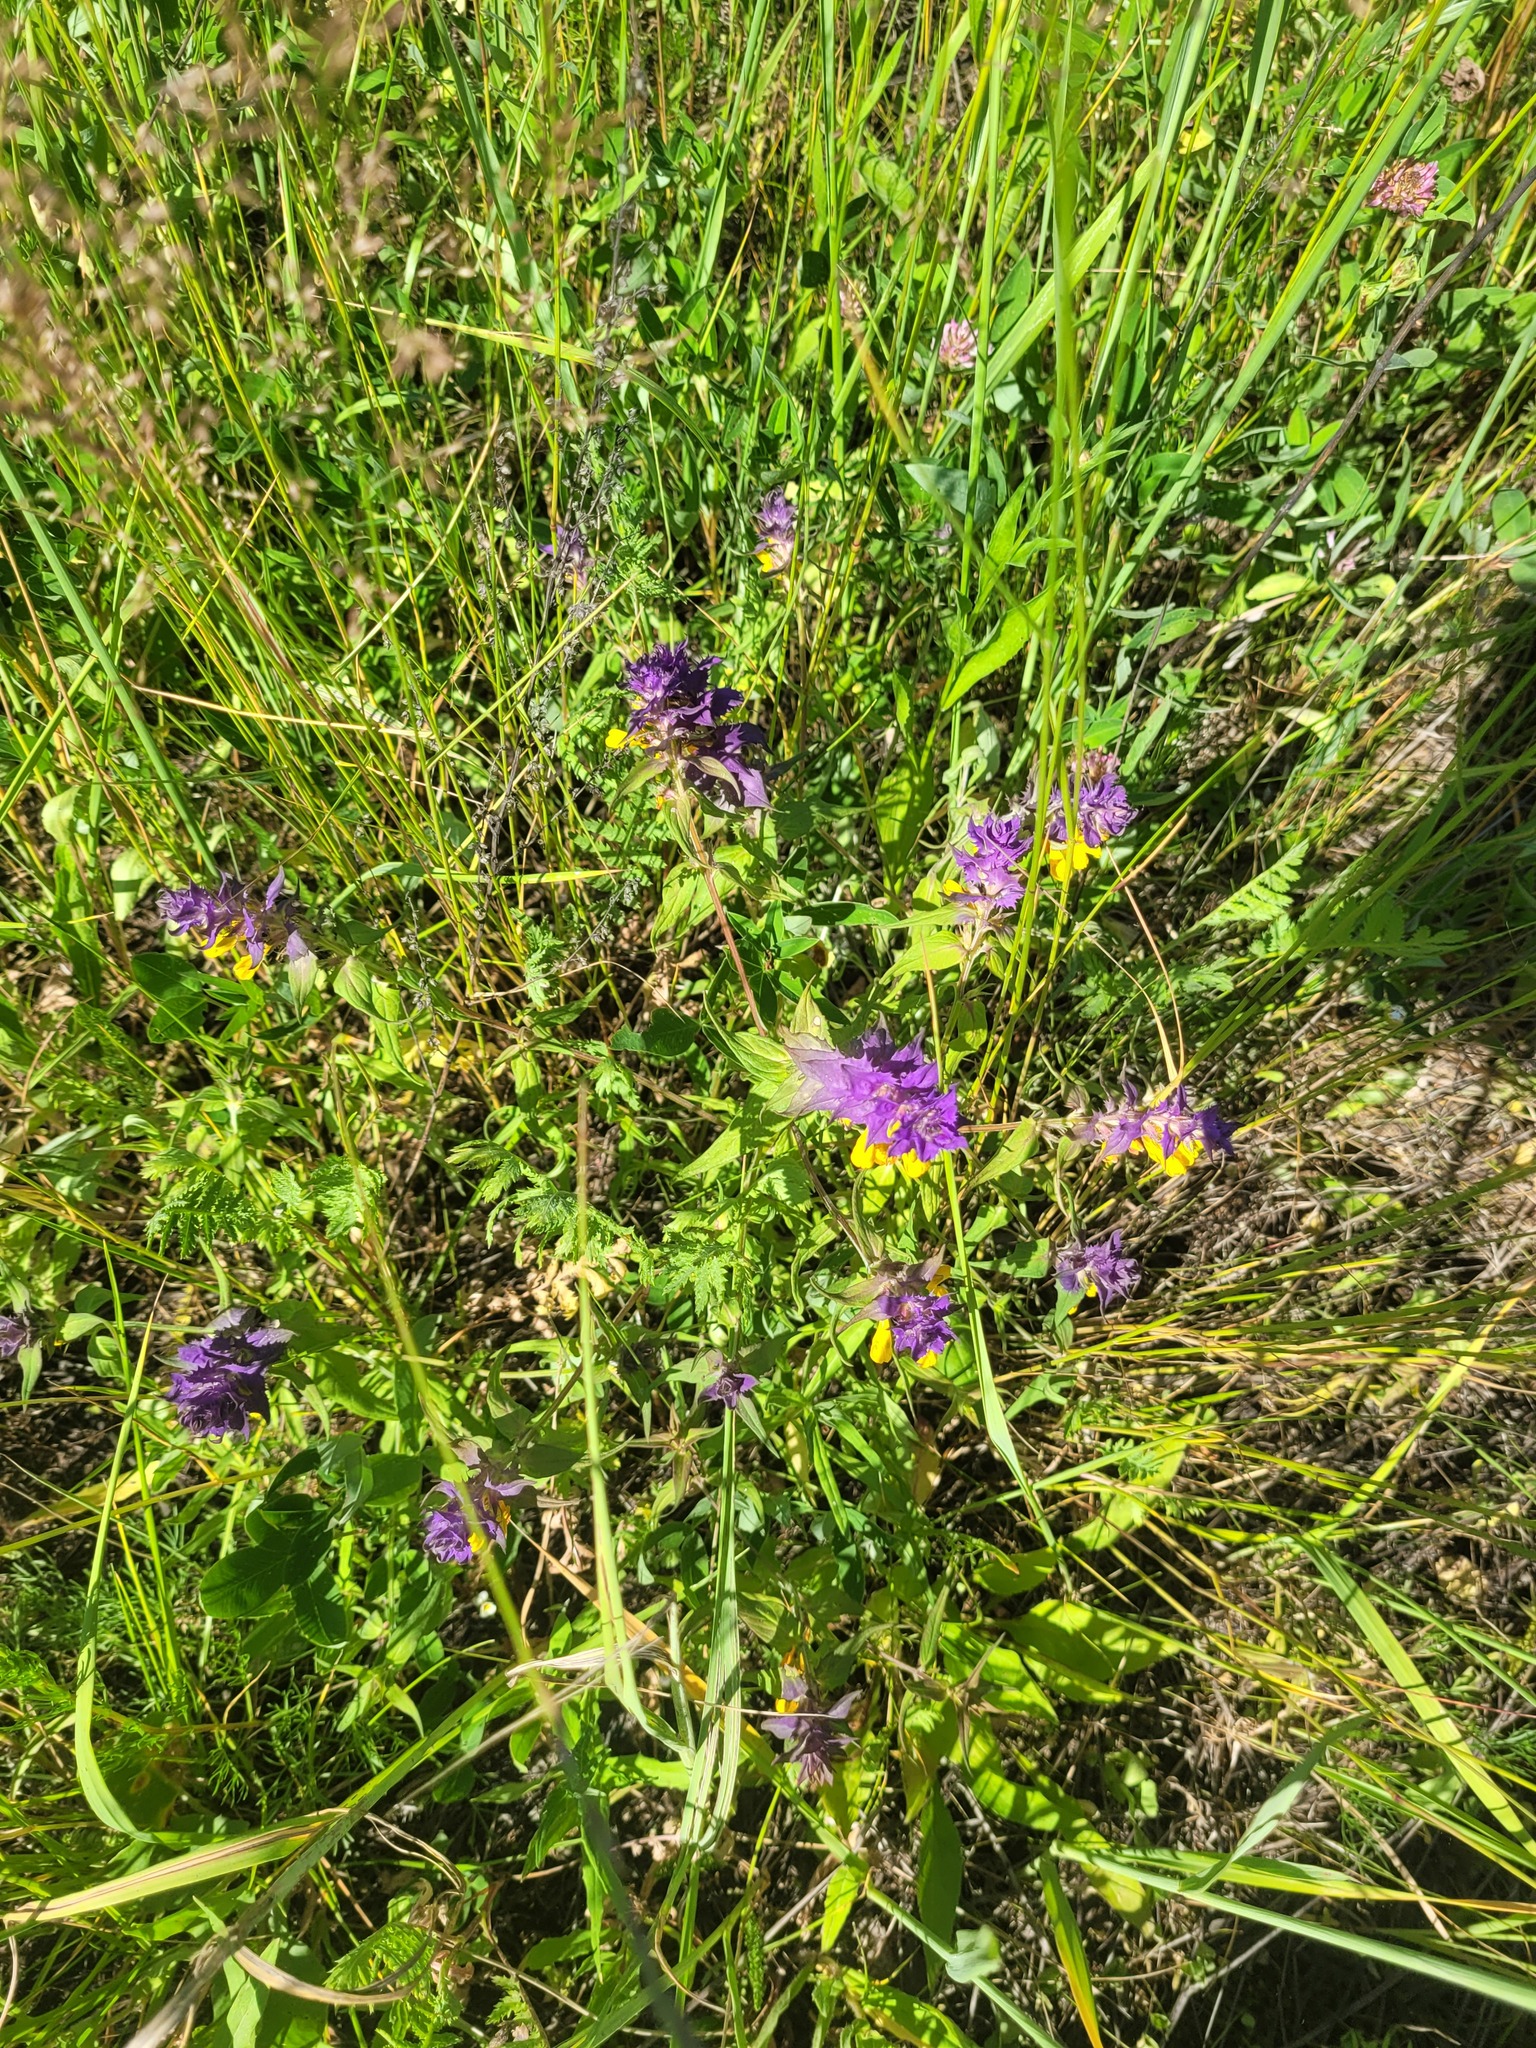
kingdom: Plantae
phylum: Tracheophyta
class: Magnoliopsida
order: Lamiales
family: Orobanchaceae
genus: Melampyrum
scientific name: Melampyrum nemorosum
